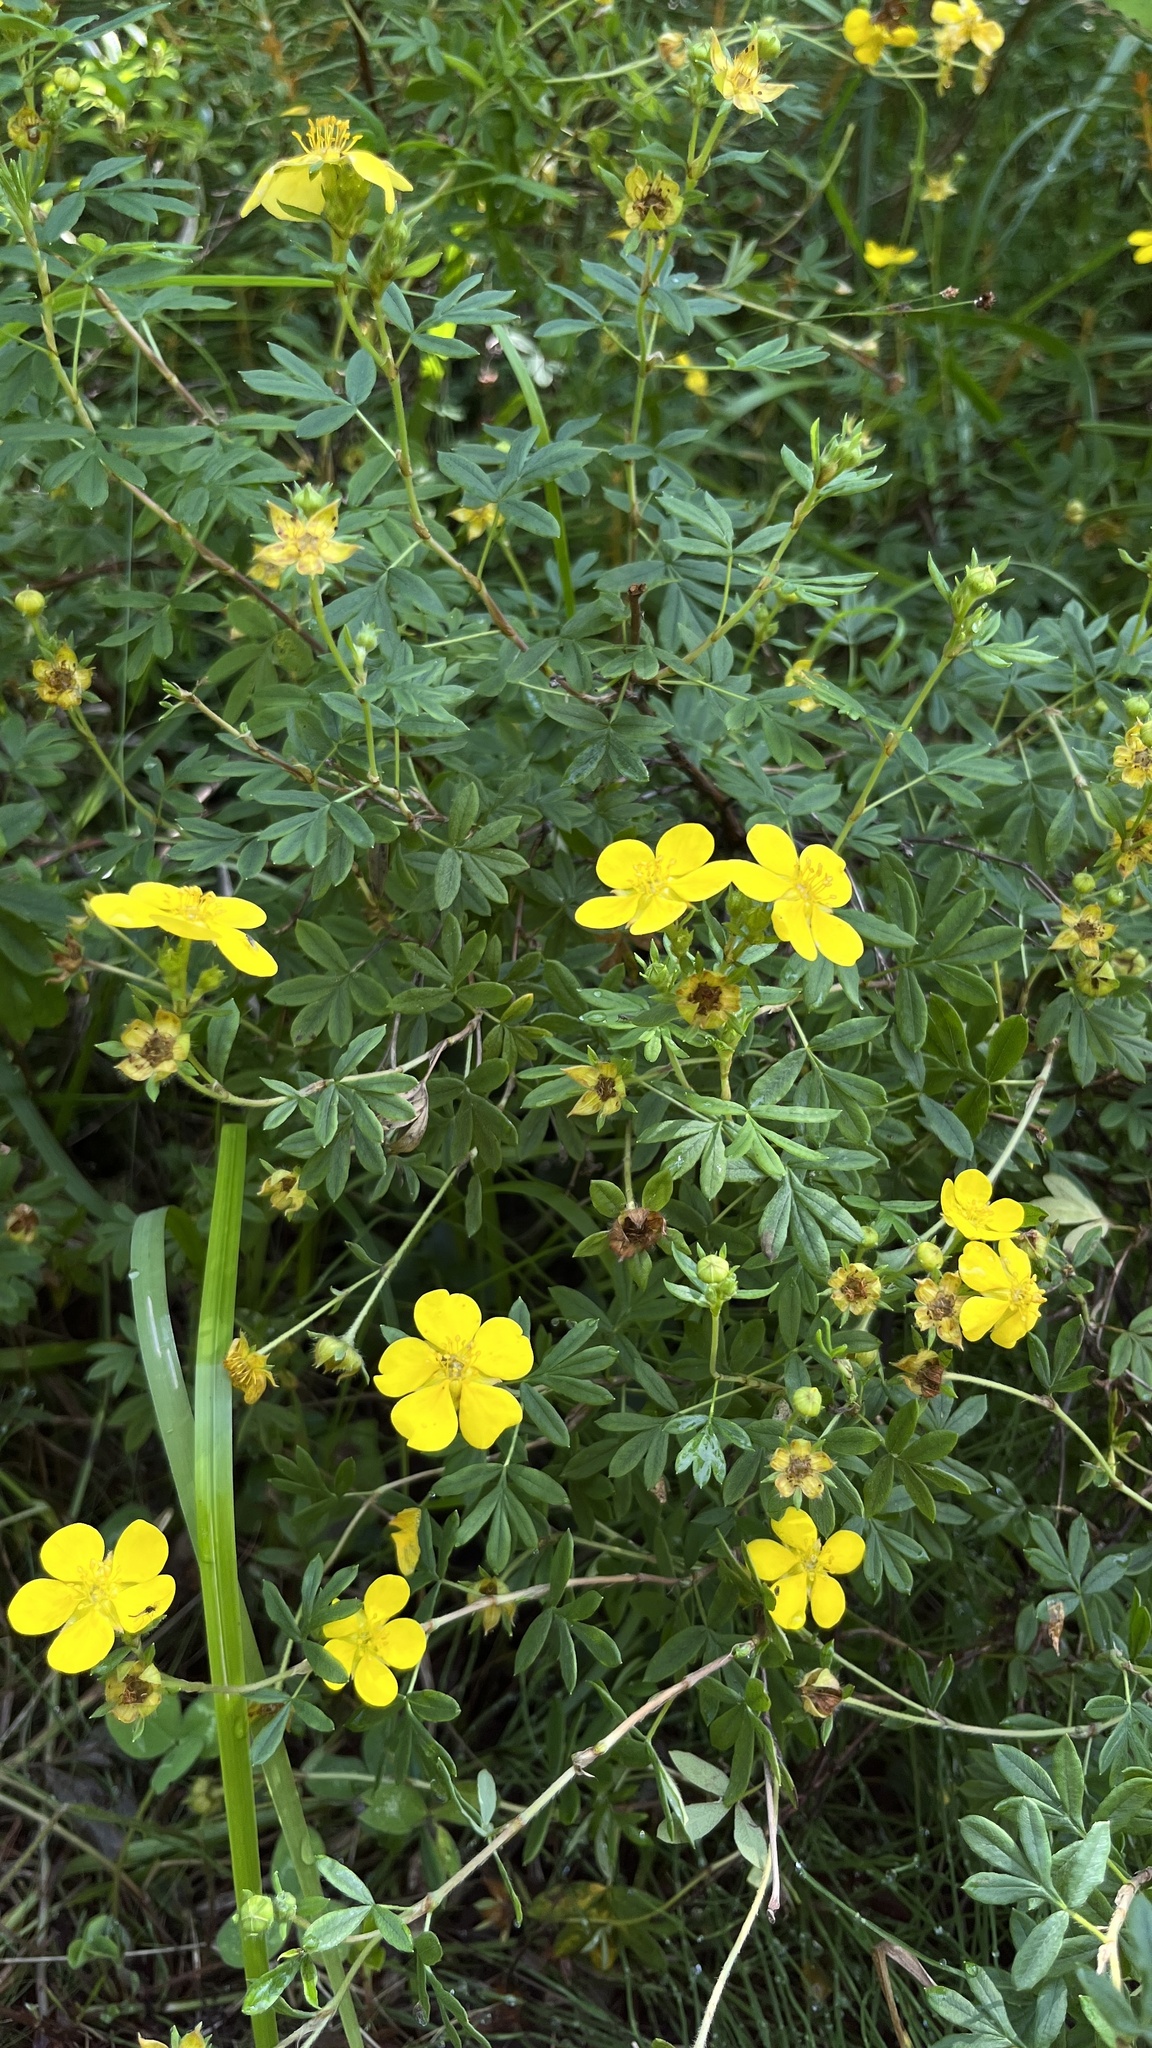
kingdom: Plantae
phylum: Tracheophyta
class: Magnoliopsida
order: Rosales
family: Rosaceae
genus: Dasiphora
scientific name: Dasiphora fruticosa
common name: Shrubby cinquefoil
